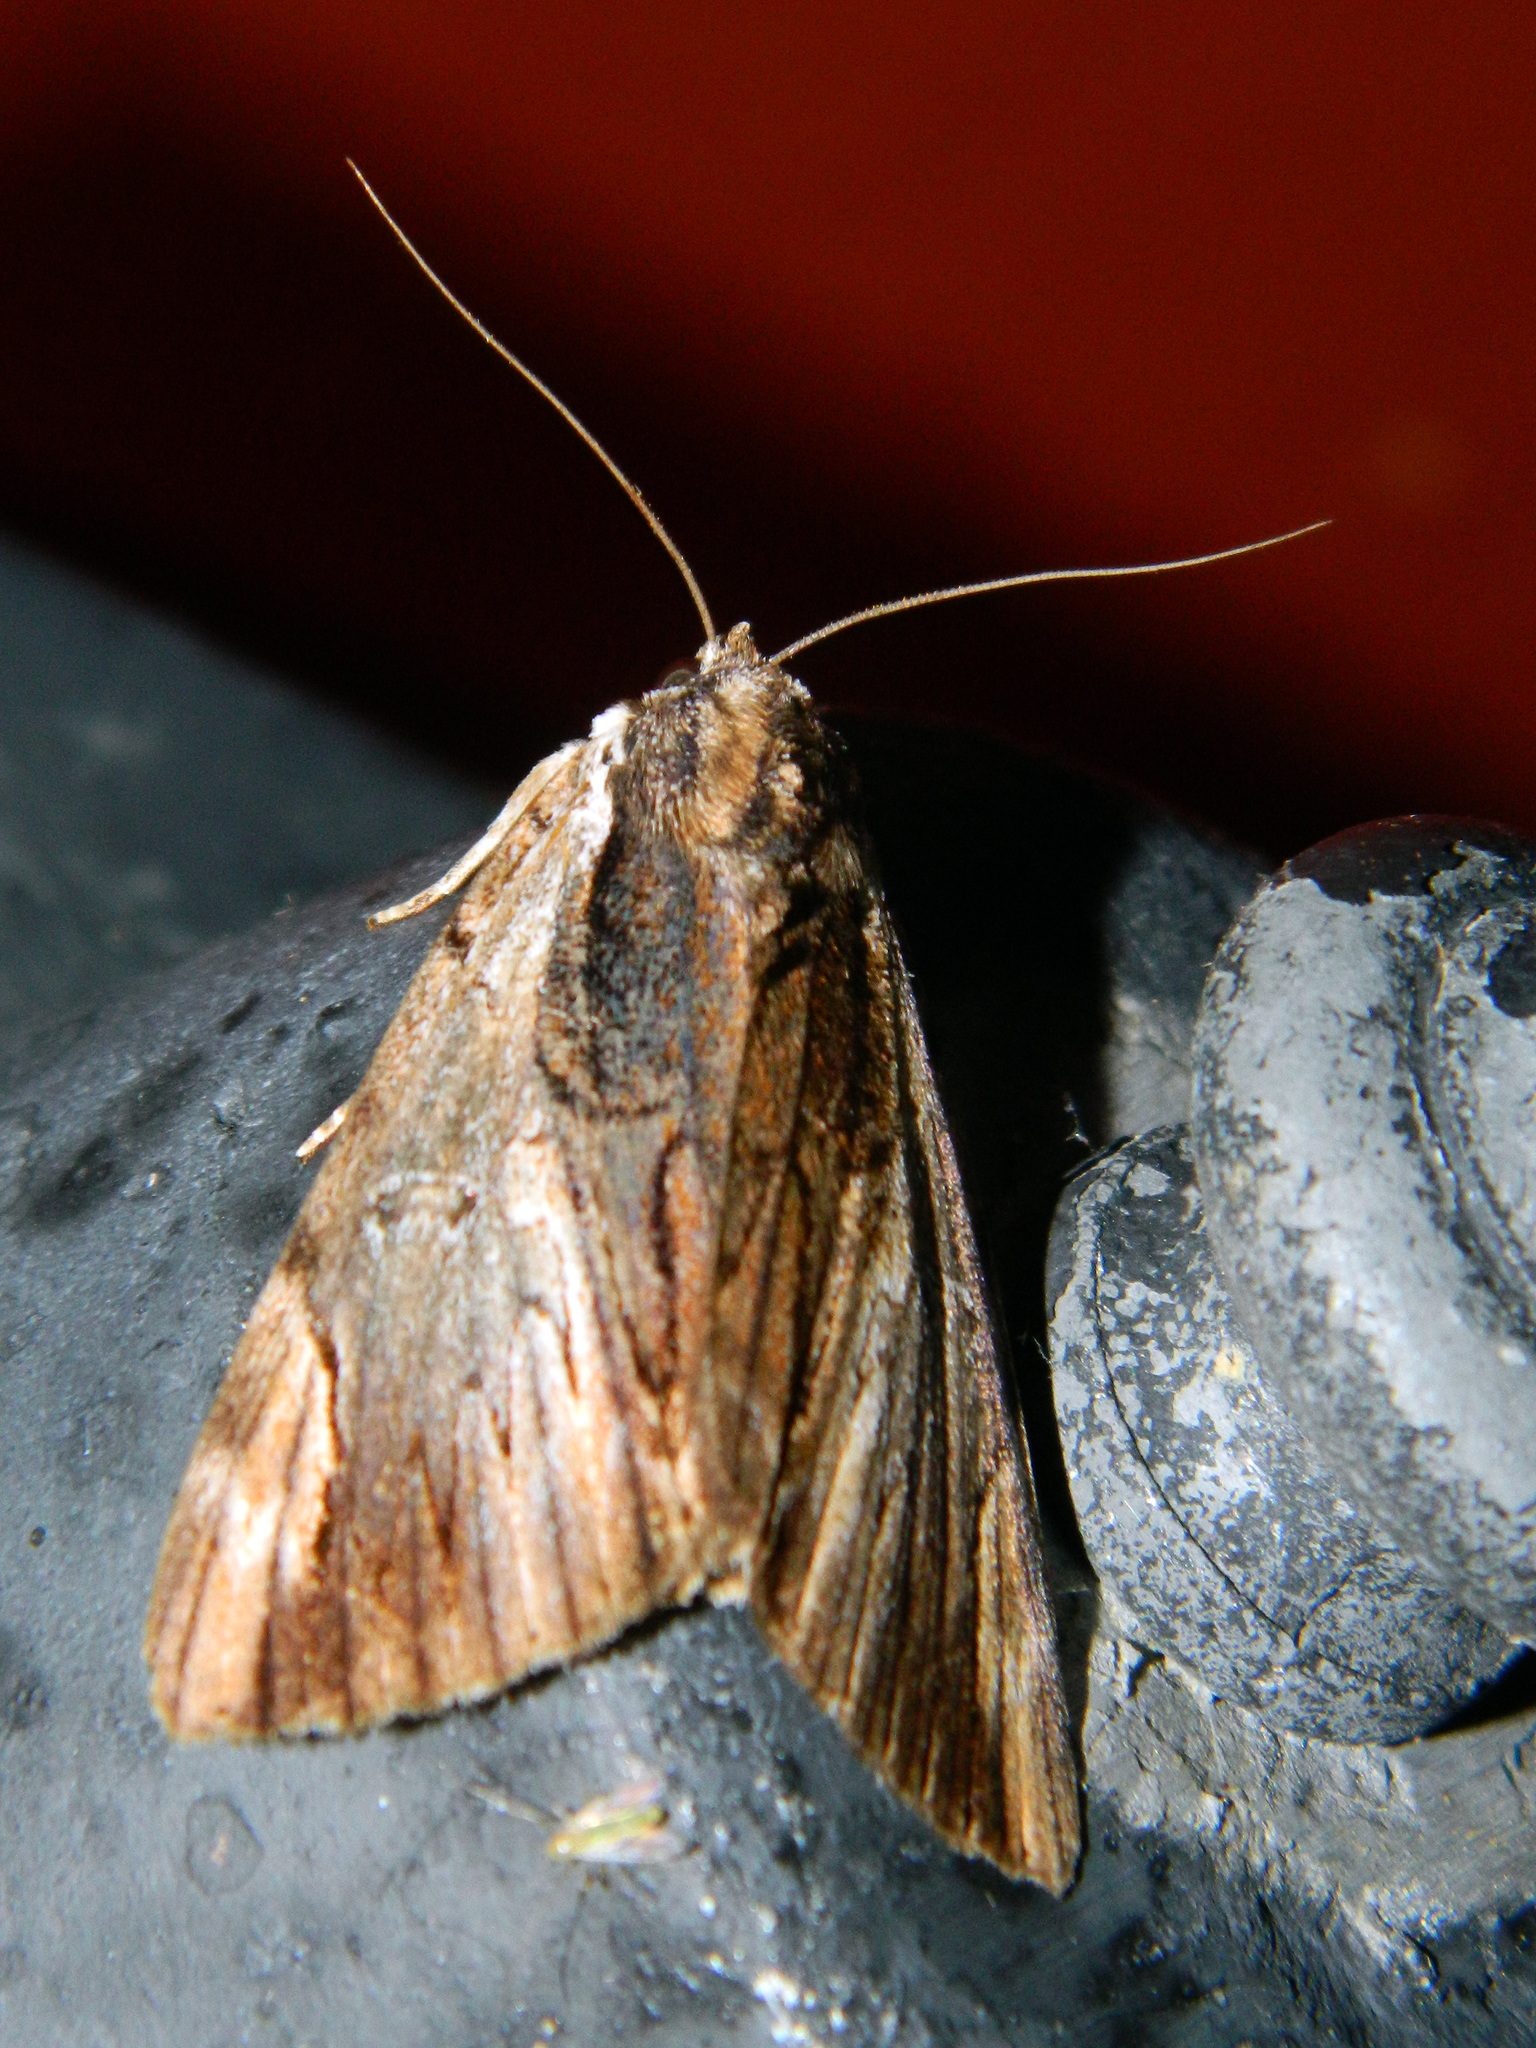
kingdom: Animalia
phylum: Arthropoda
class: Insecta
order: Lepidoptera
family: Erebidae
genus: Catocala
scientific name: Catocala ultronia
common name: Ultronia underwing
